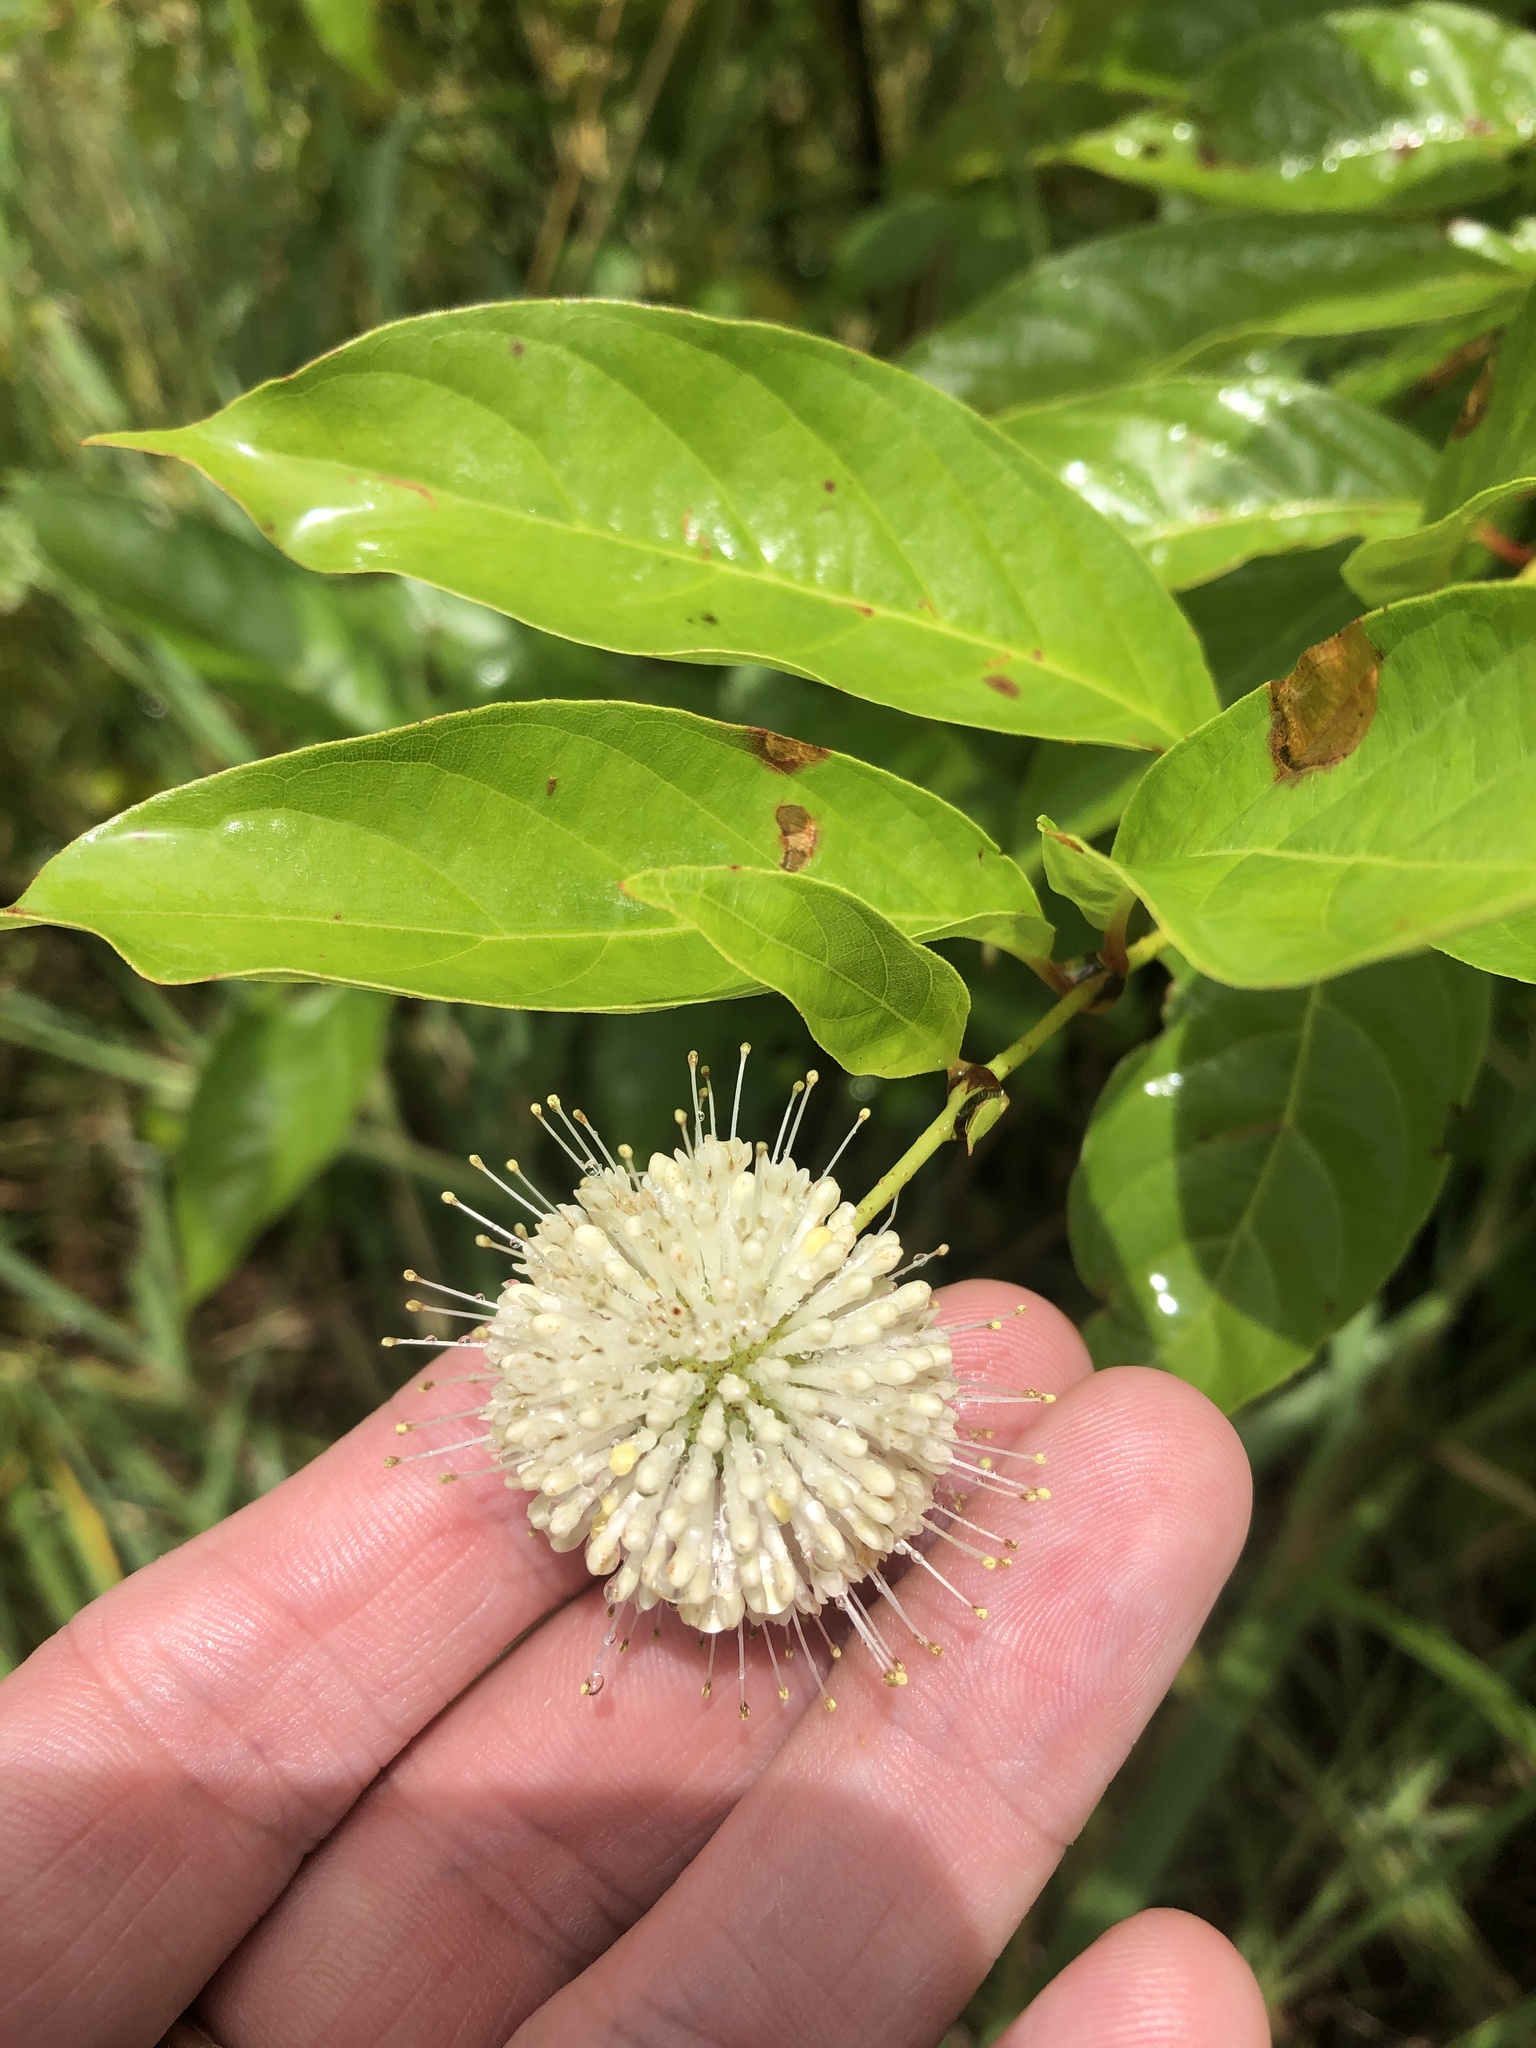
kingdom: Plantae
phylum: Tracheophyta
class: Magnoliopsida
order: Gentianales
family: Rubiaceae
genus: Cephalanthus
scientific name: Cephalanthus occidentalis
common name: Button-willow
